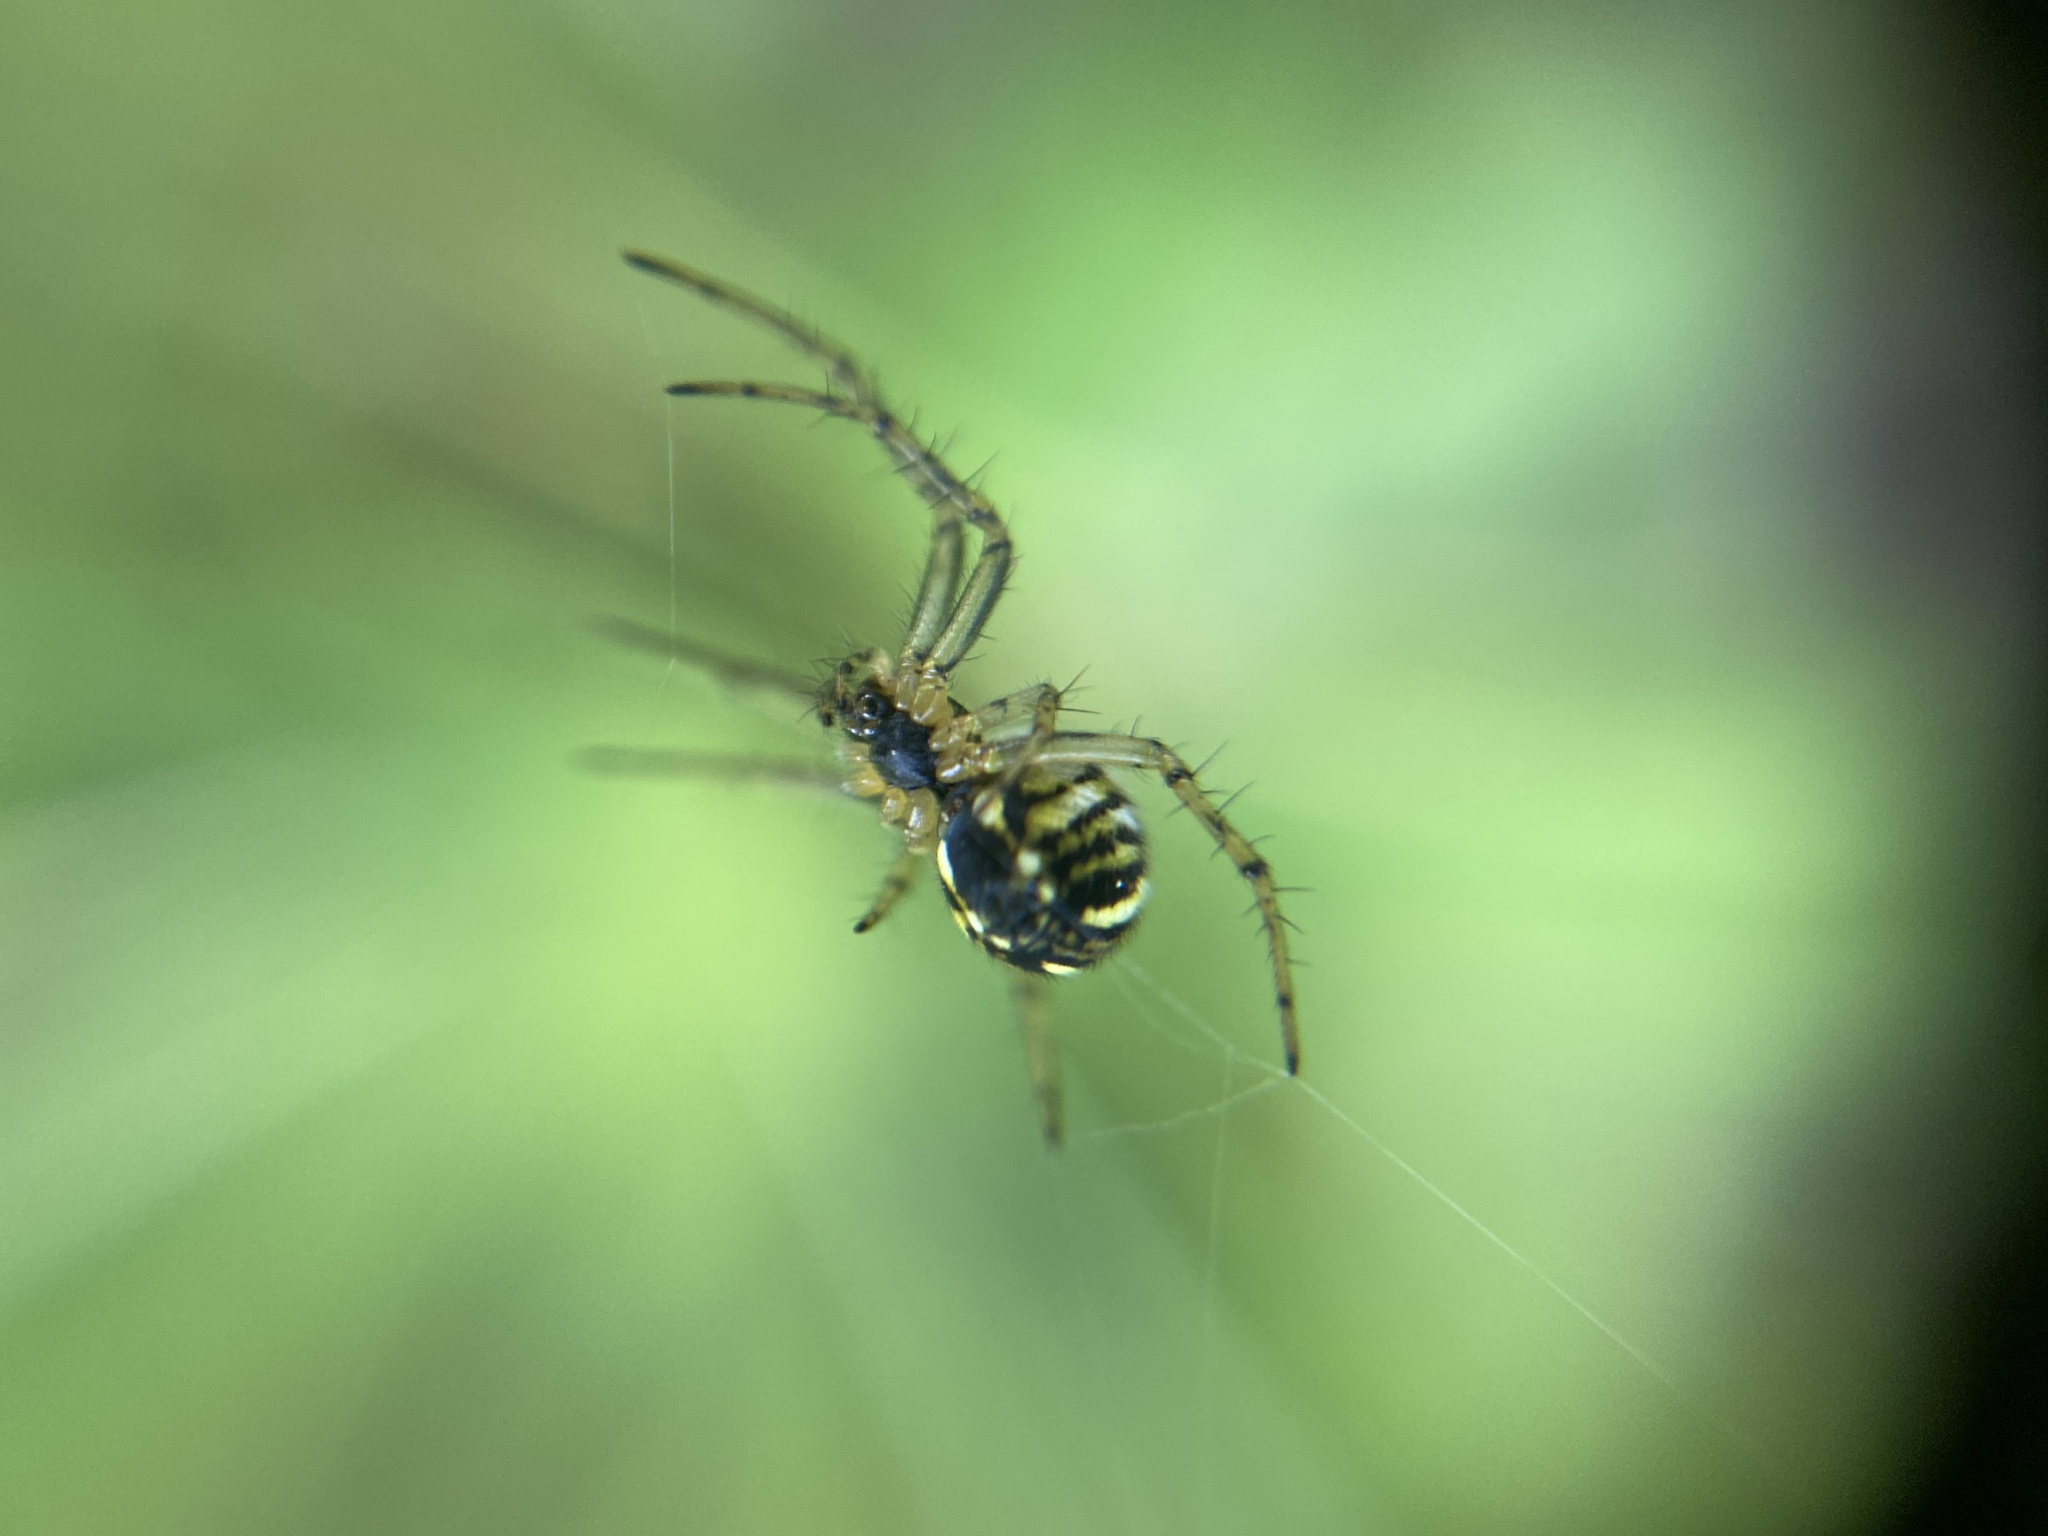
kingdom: Animalia
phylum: Arthropoda
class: Arachnida
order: Araneae
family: Araneidae
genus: Mangora
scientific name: Mangora acalypha
